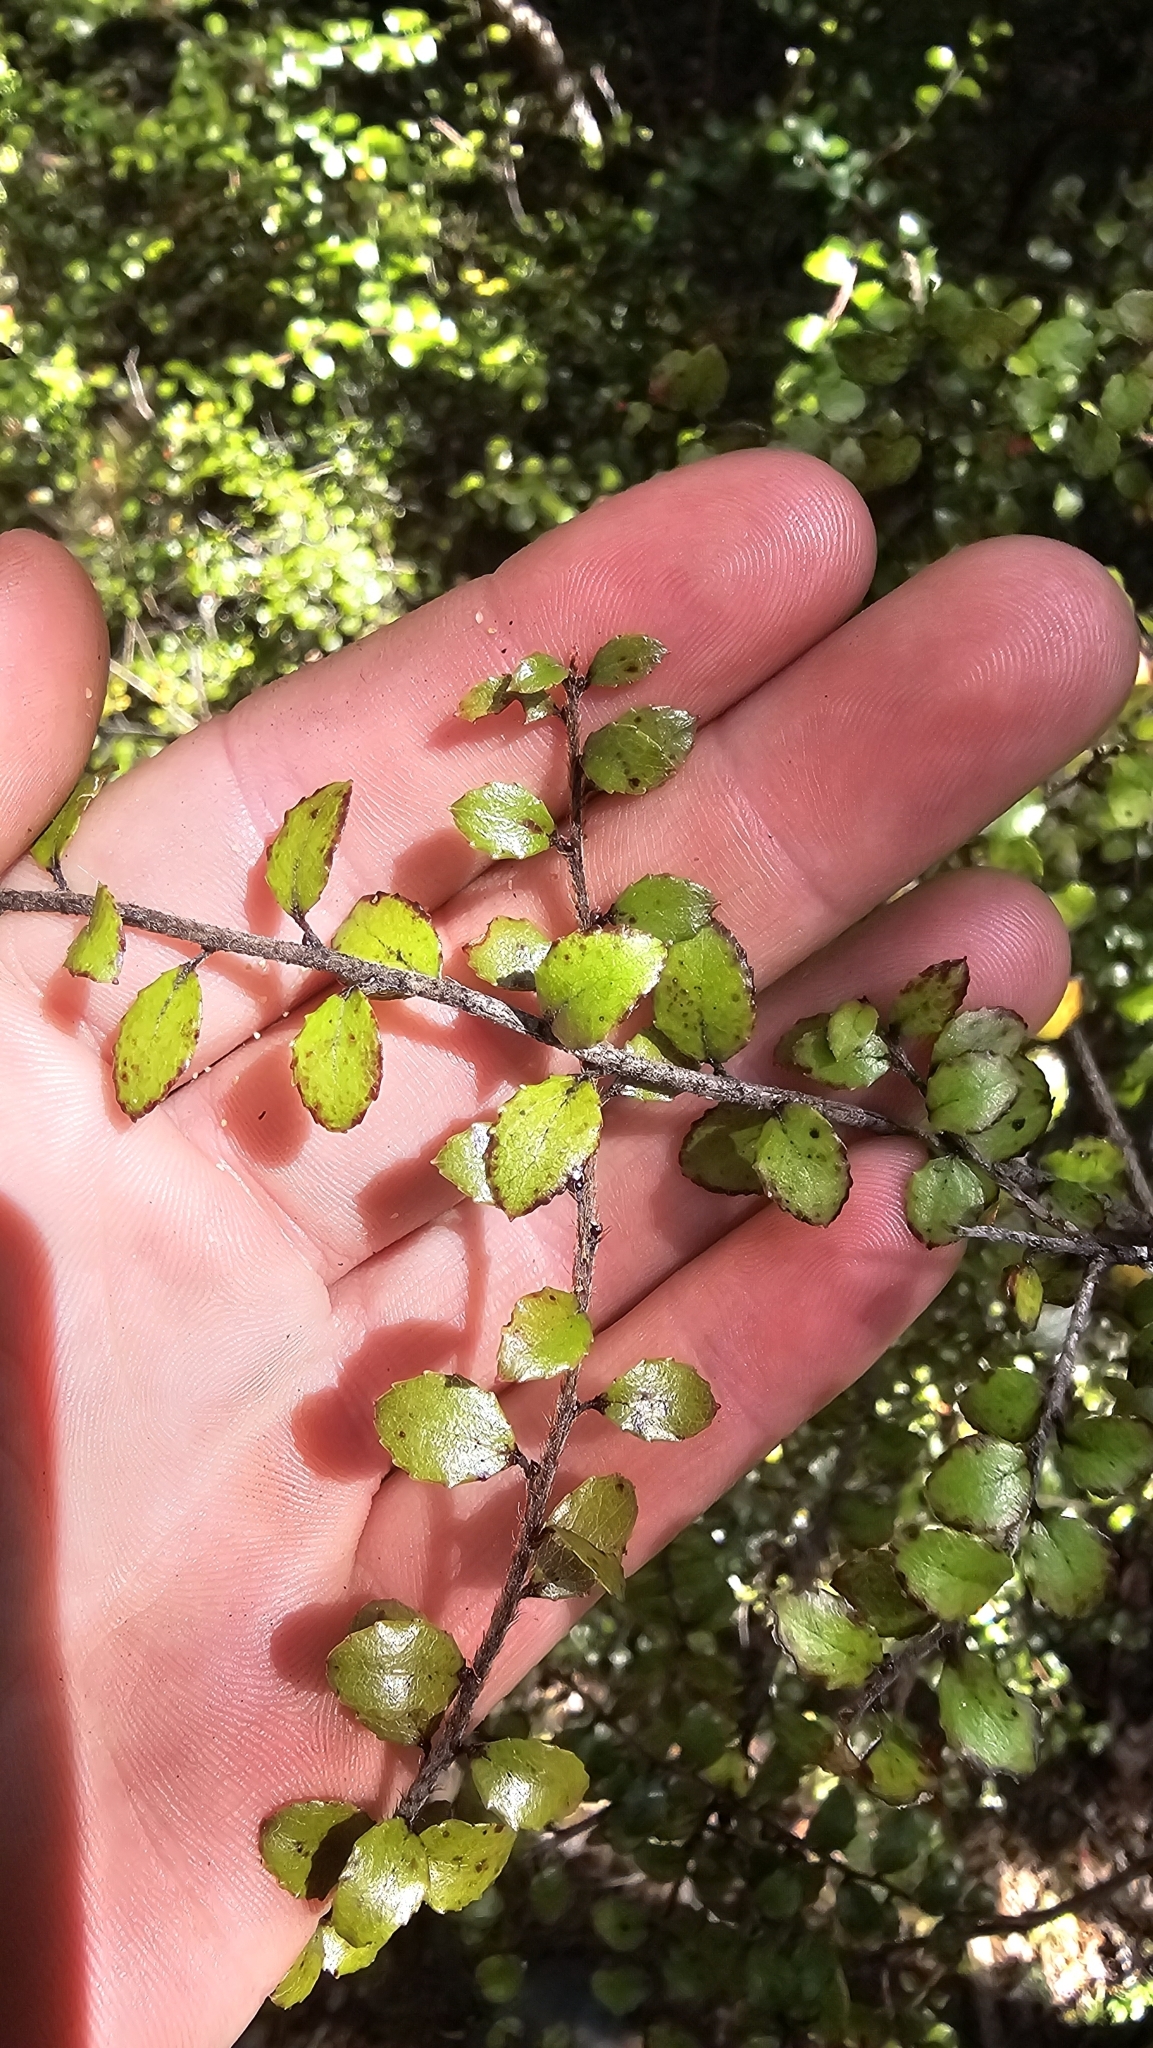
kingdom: Plantae
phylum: Tracheophyta
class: Magnoliopsida
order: Ericales
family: Ericaceae
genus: Gaultheria
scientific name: Gaultheria antipoda
